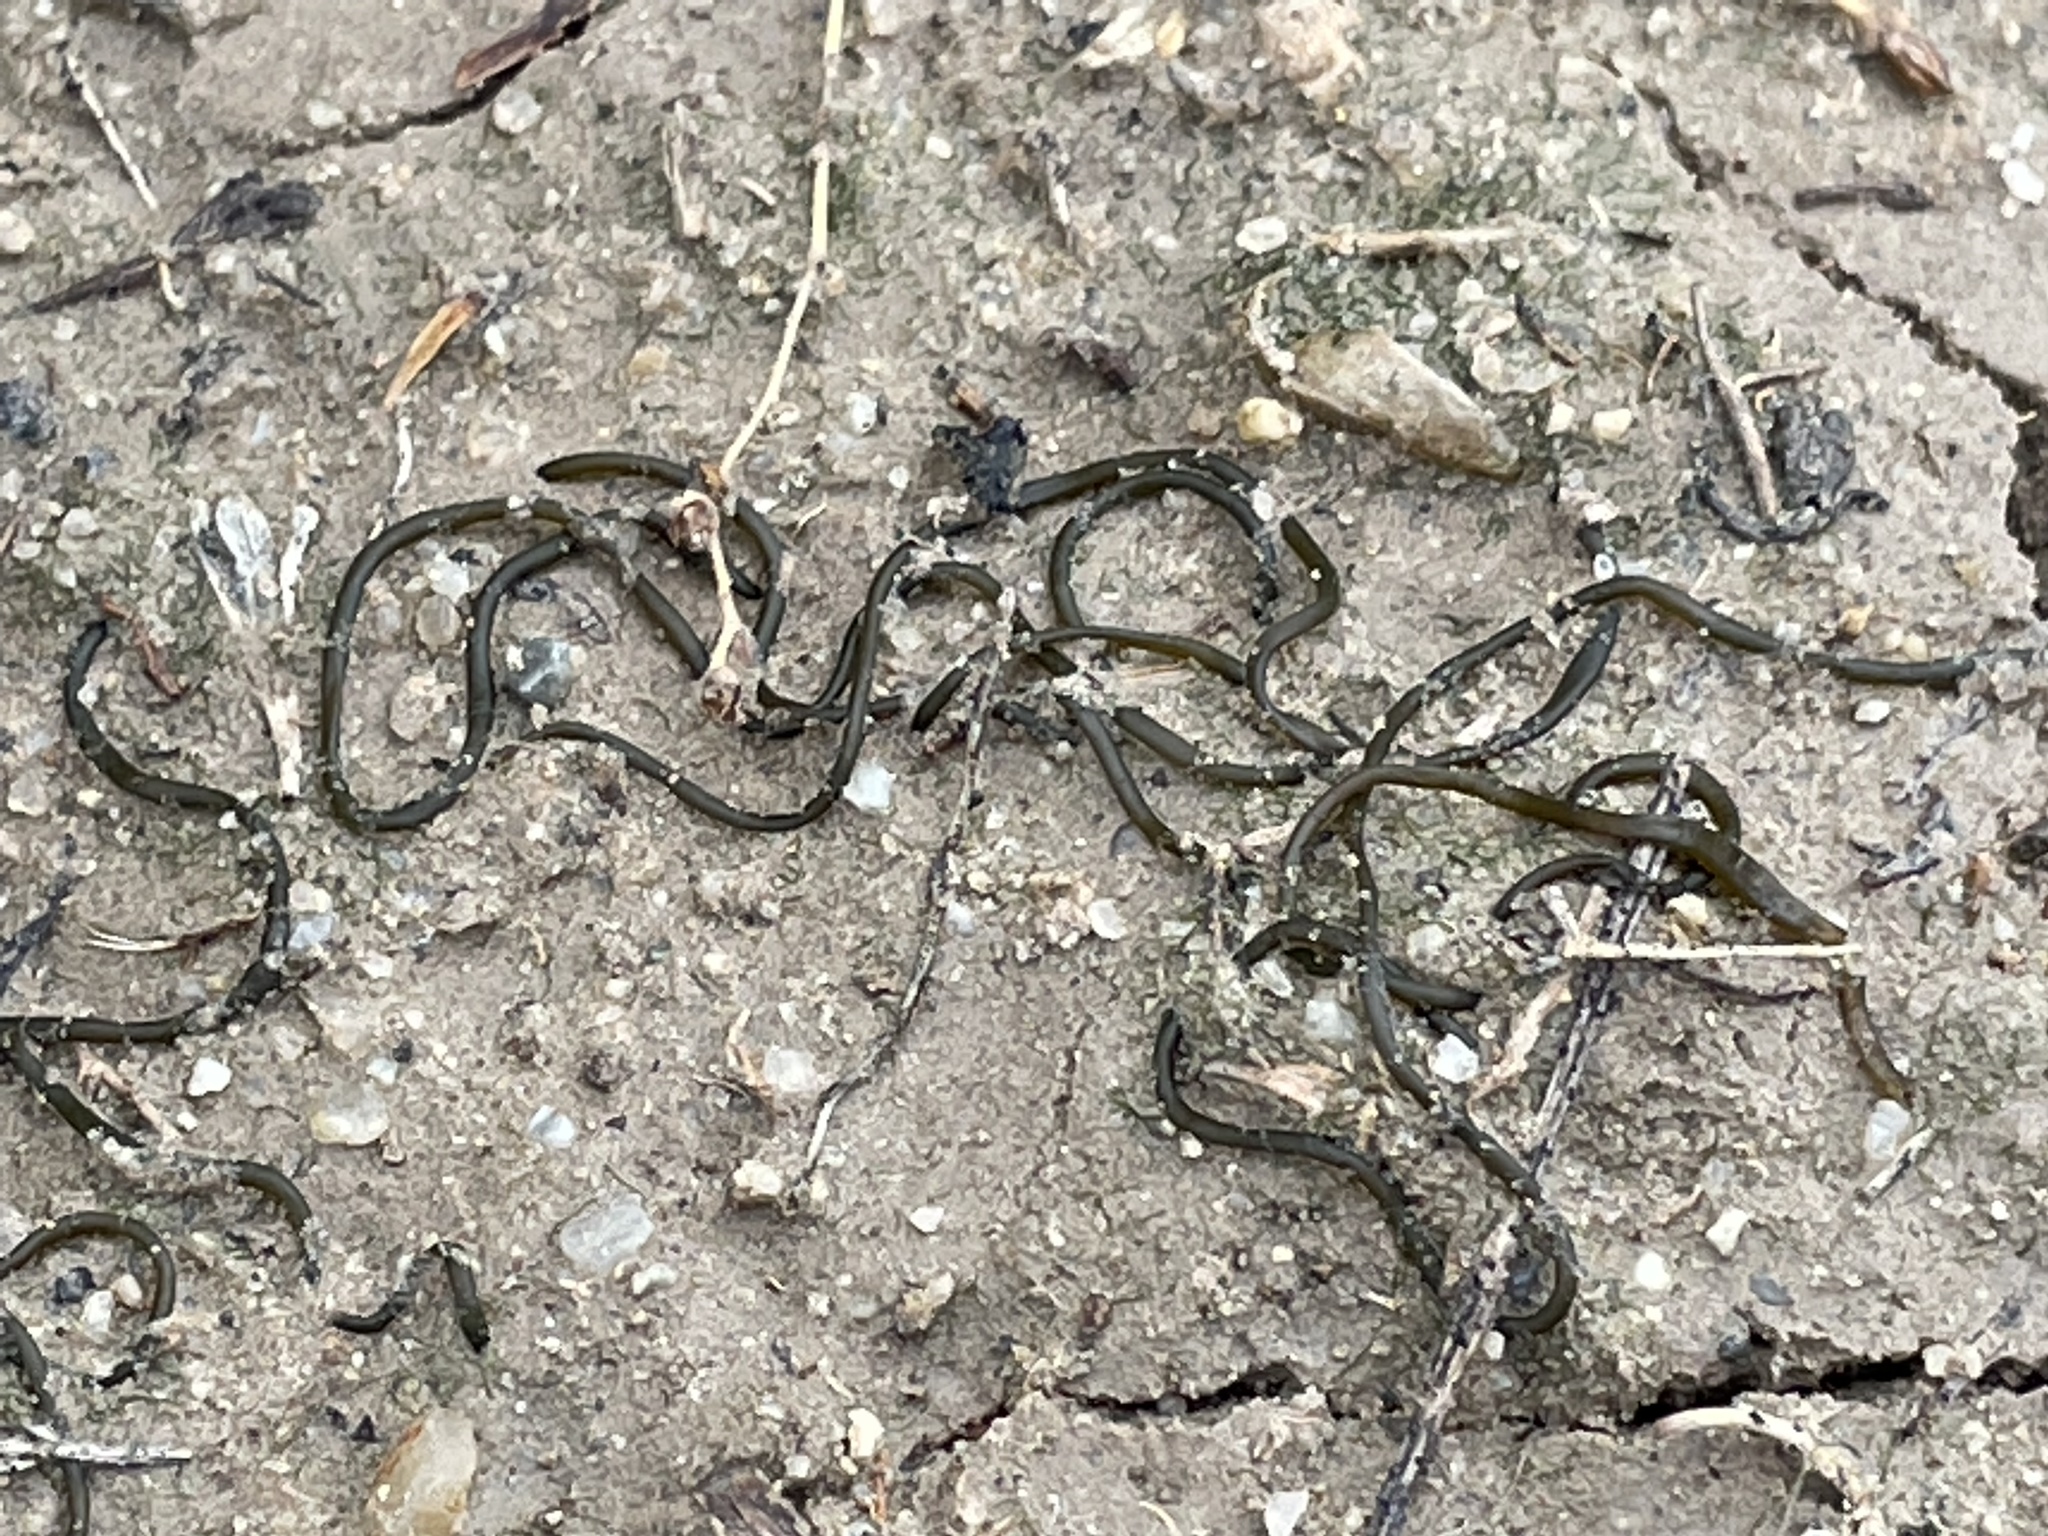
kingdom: Bacteria
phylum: Cyanobacteria
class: Cyanobacteriia
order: Cyanobacteriales
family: Nostocaceae
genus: Nostoc
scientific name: Nostoc flagelliforme
